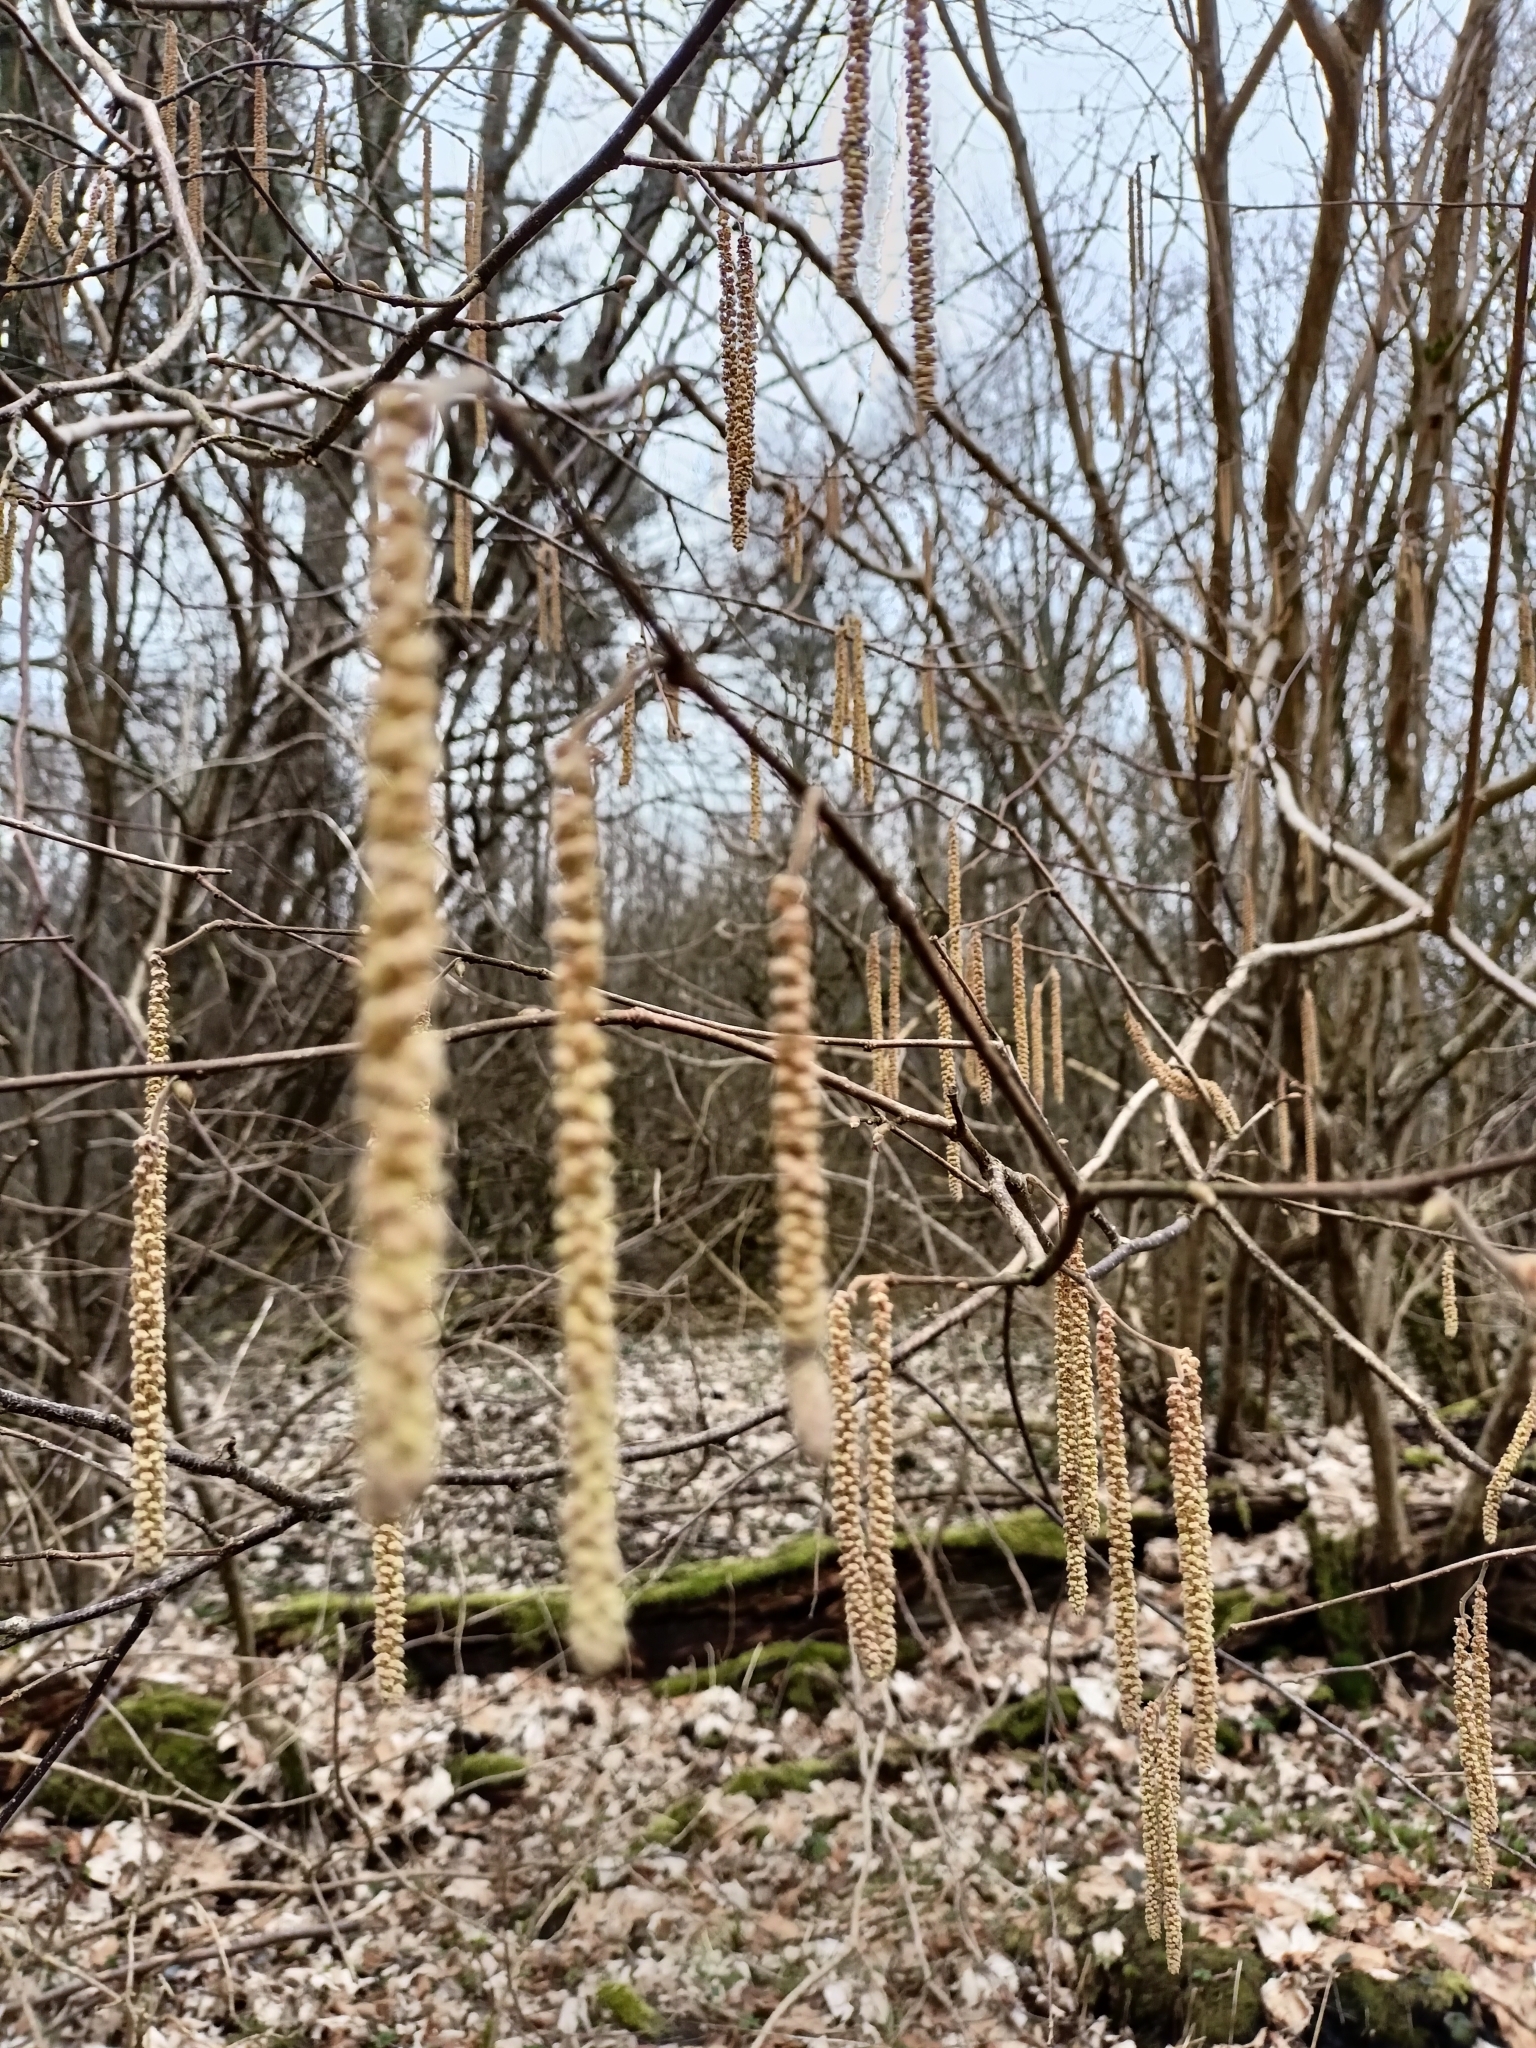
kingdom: Plantae
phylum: Tracheophyta
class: Magnoliopsida
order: Fagales
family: Betulaceae
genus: Corylus
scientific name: Corylus avellana
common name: European hazel
